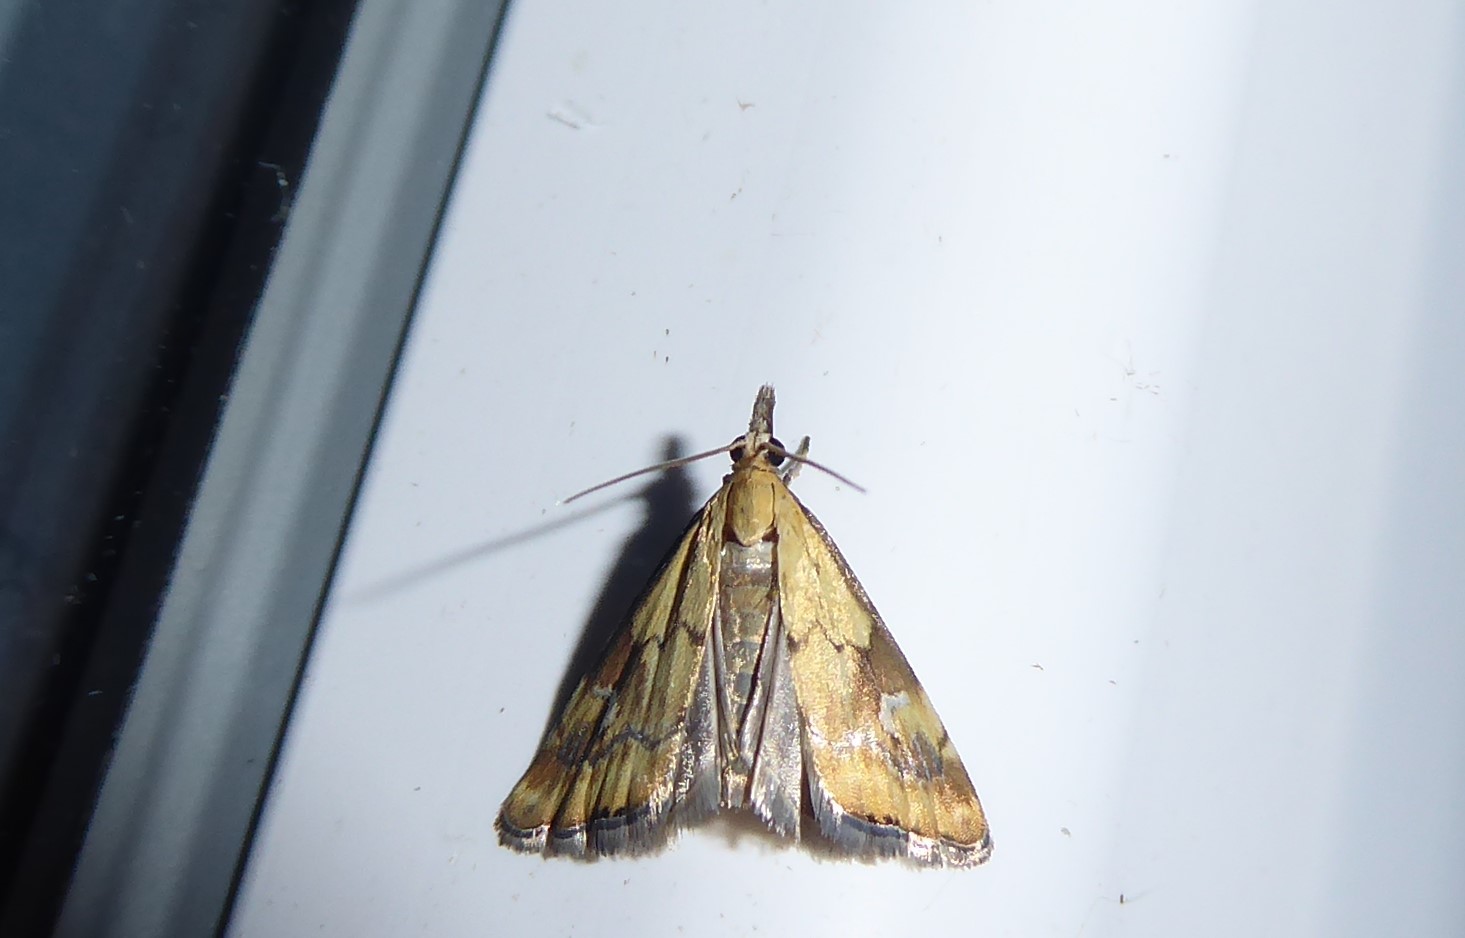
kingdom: Animalia
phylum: Arthropoda
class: Insecta
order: Lepidoptera
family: Crambidae
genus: Glaucocharis
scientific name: Glaucocharis lepidella
